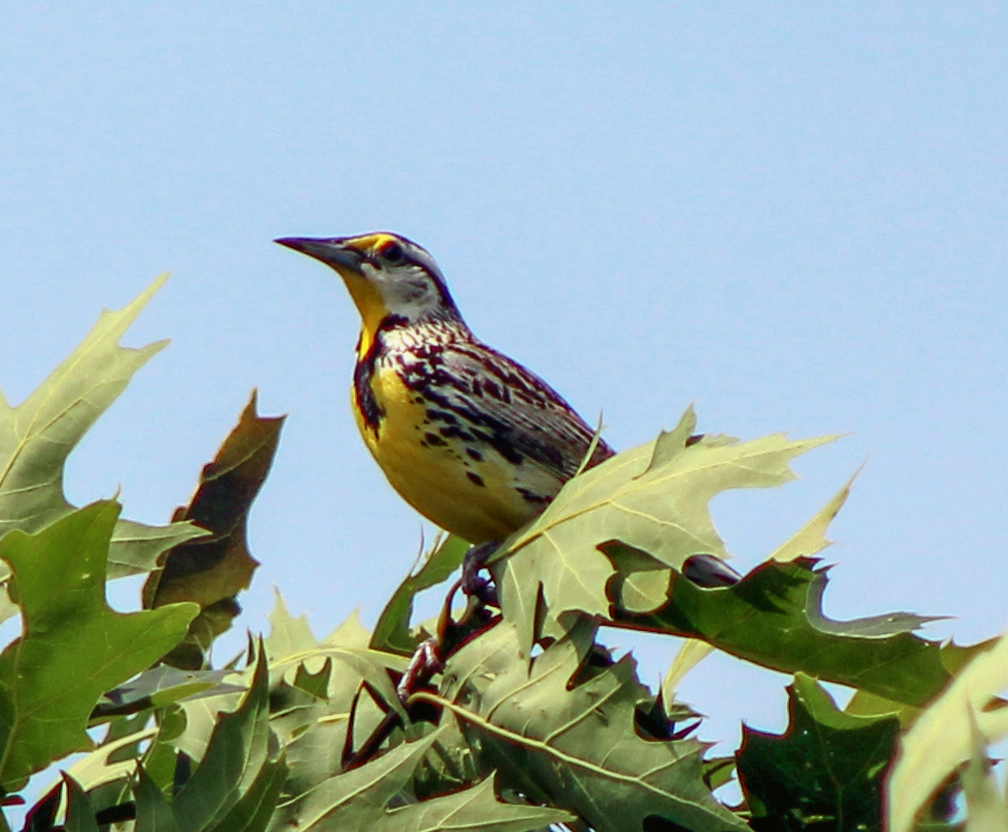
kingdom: Animalia
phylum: Chordata
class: Aves
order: Passeriformes
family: Icteridae
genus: Sturnella
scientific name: Sturnella magna
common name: Eastern meadowlark
